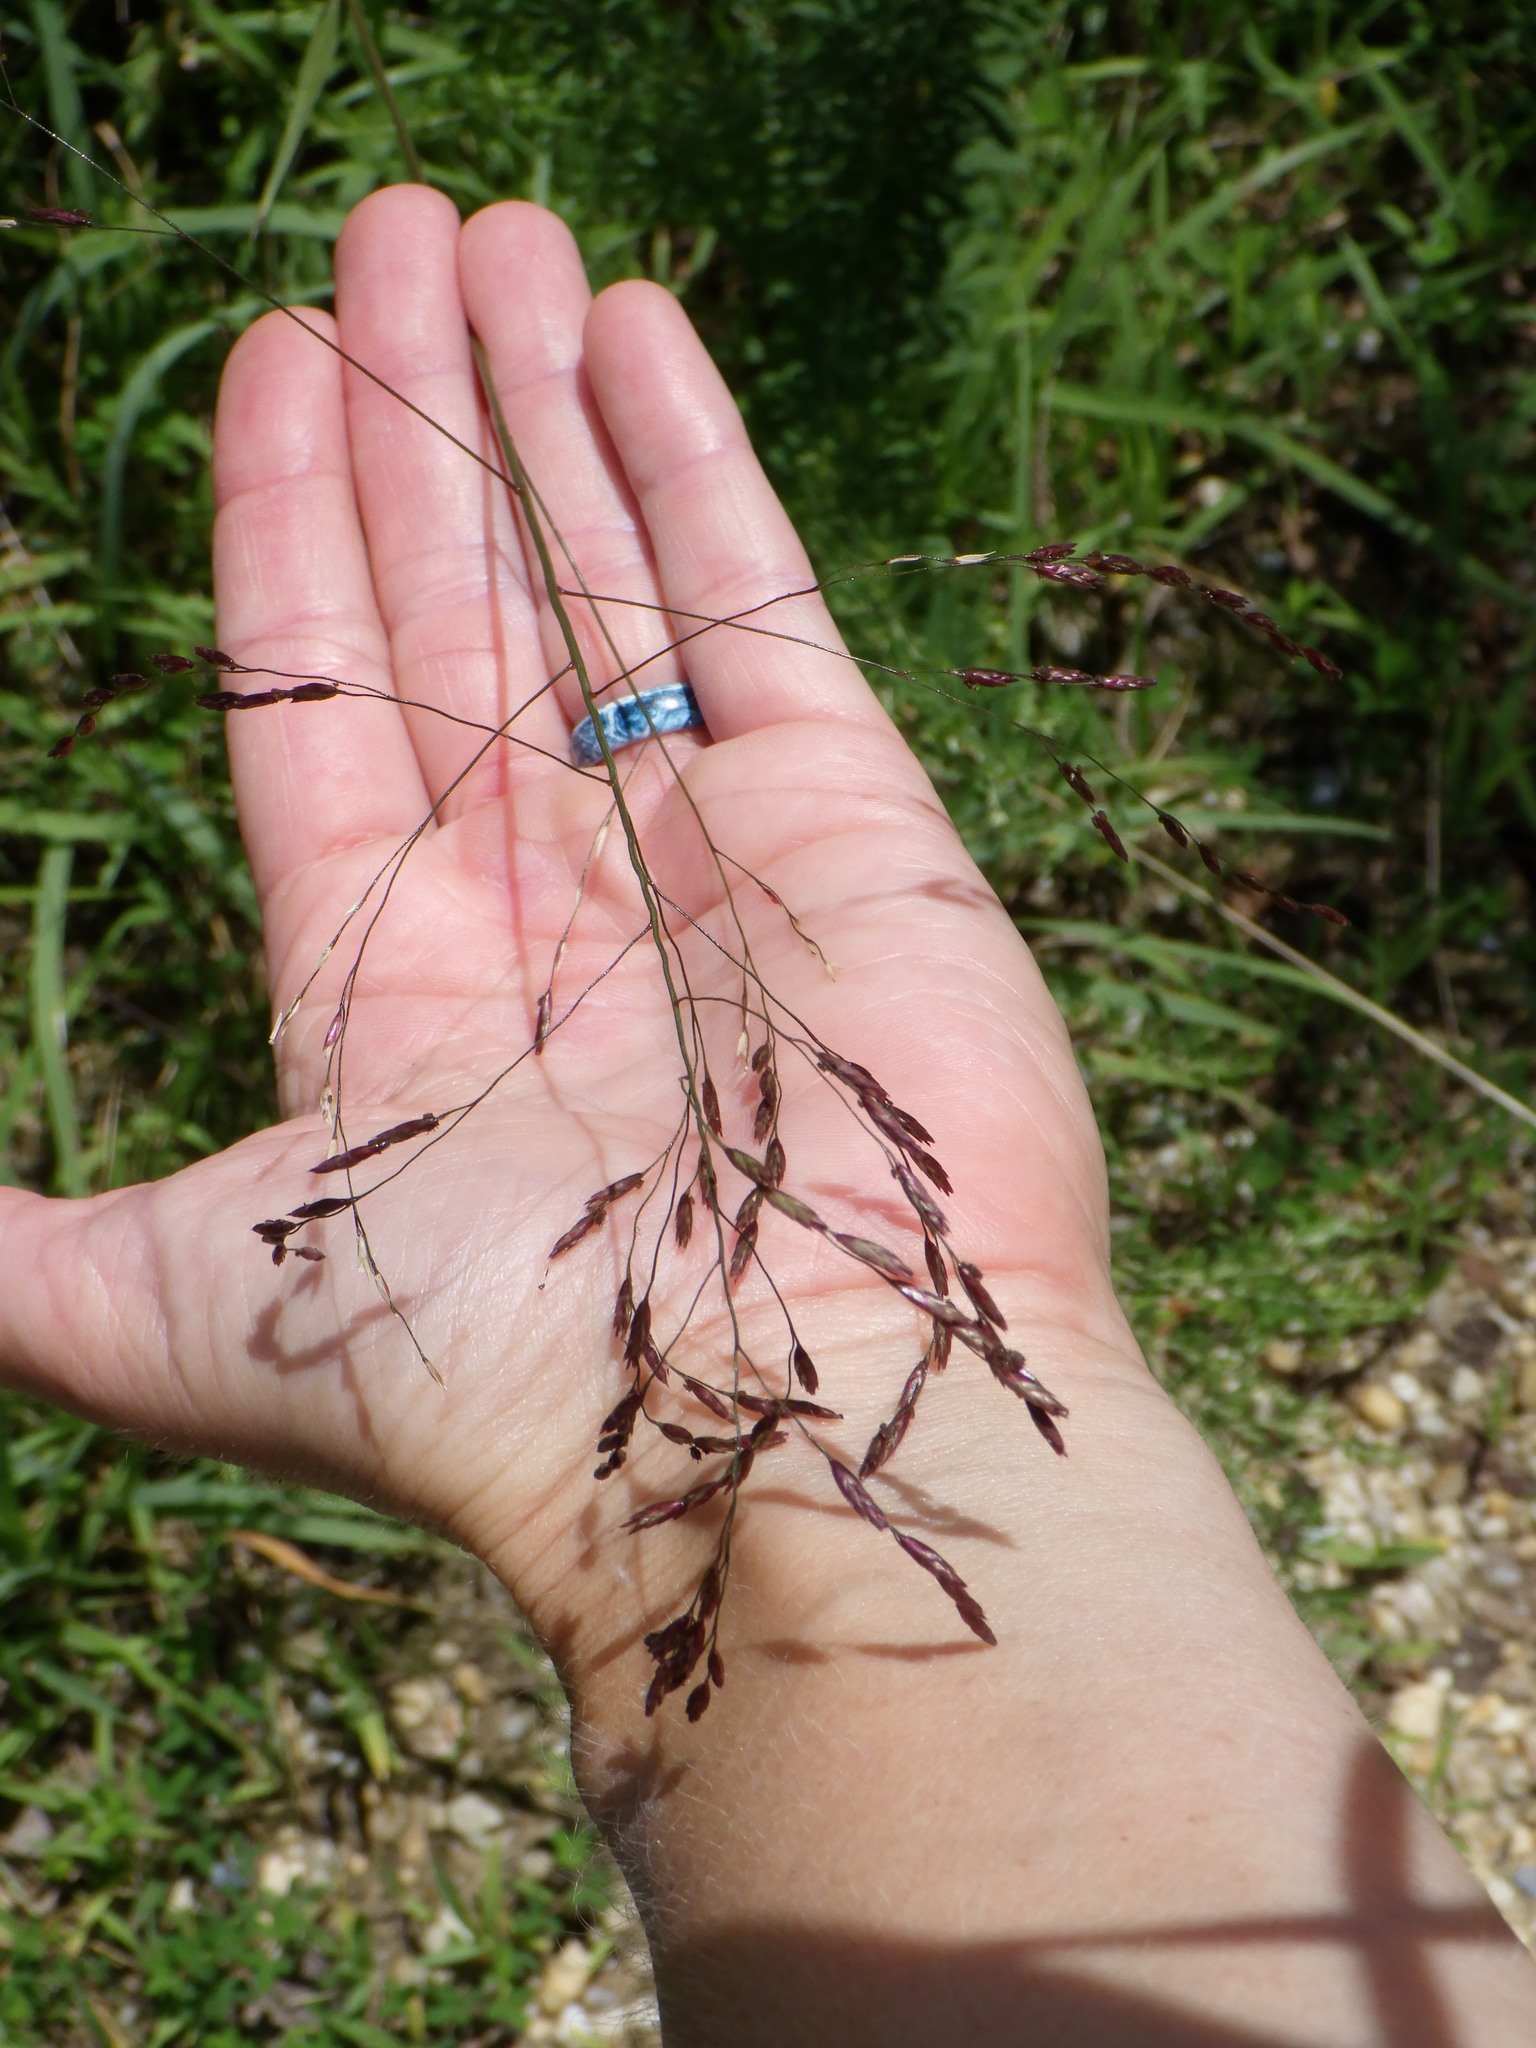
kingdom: Plantae
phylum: Tracheophyta
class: Liliopsida
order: Poales
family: Poaceae
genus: Tridens
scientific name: Tridens flavus
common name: Purpletop
